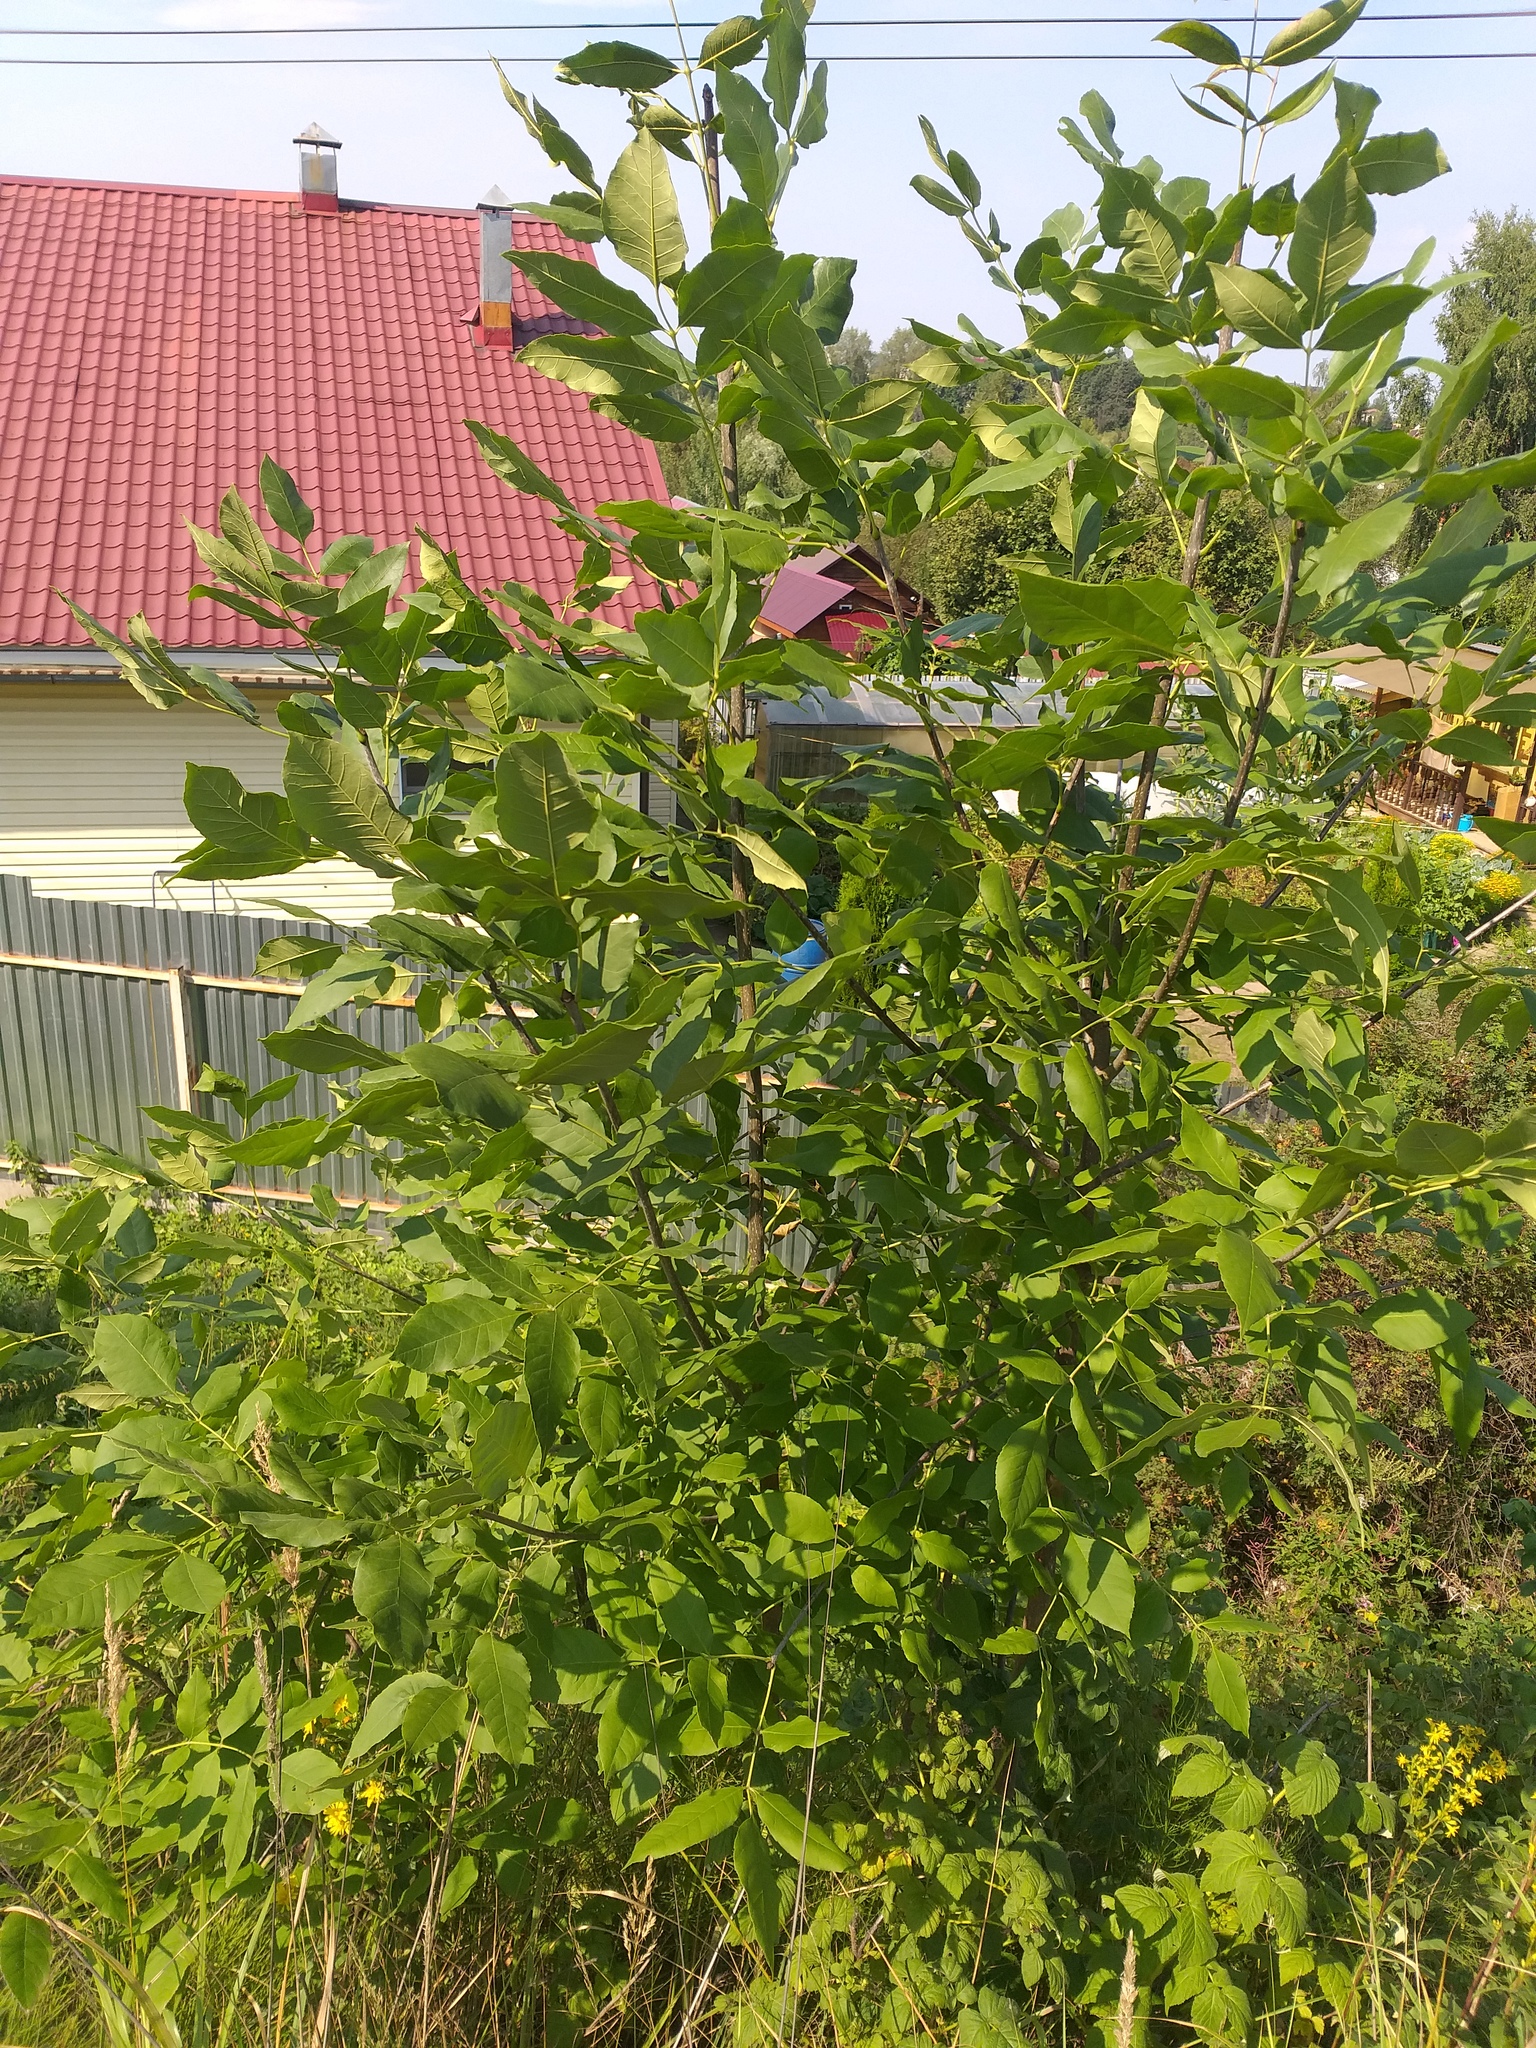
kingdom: Plantae
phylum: Tracheophyta
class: Magnoliopsida
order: Lamiales
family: Oleaceae
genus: Fraxinus
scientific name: Fraxinus pennsylvanica
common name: Green ash
